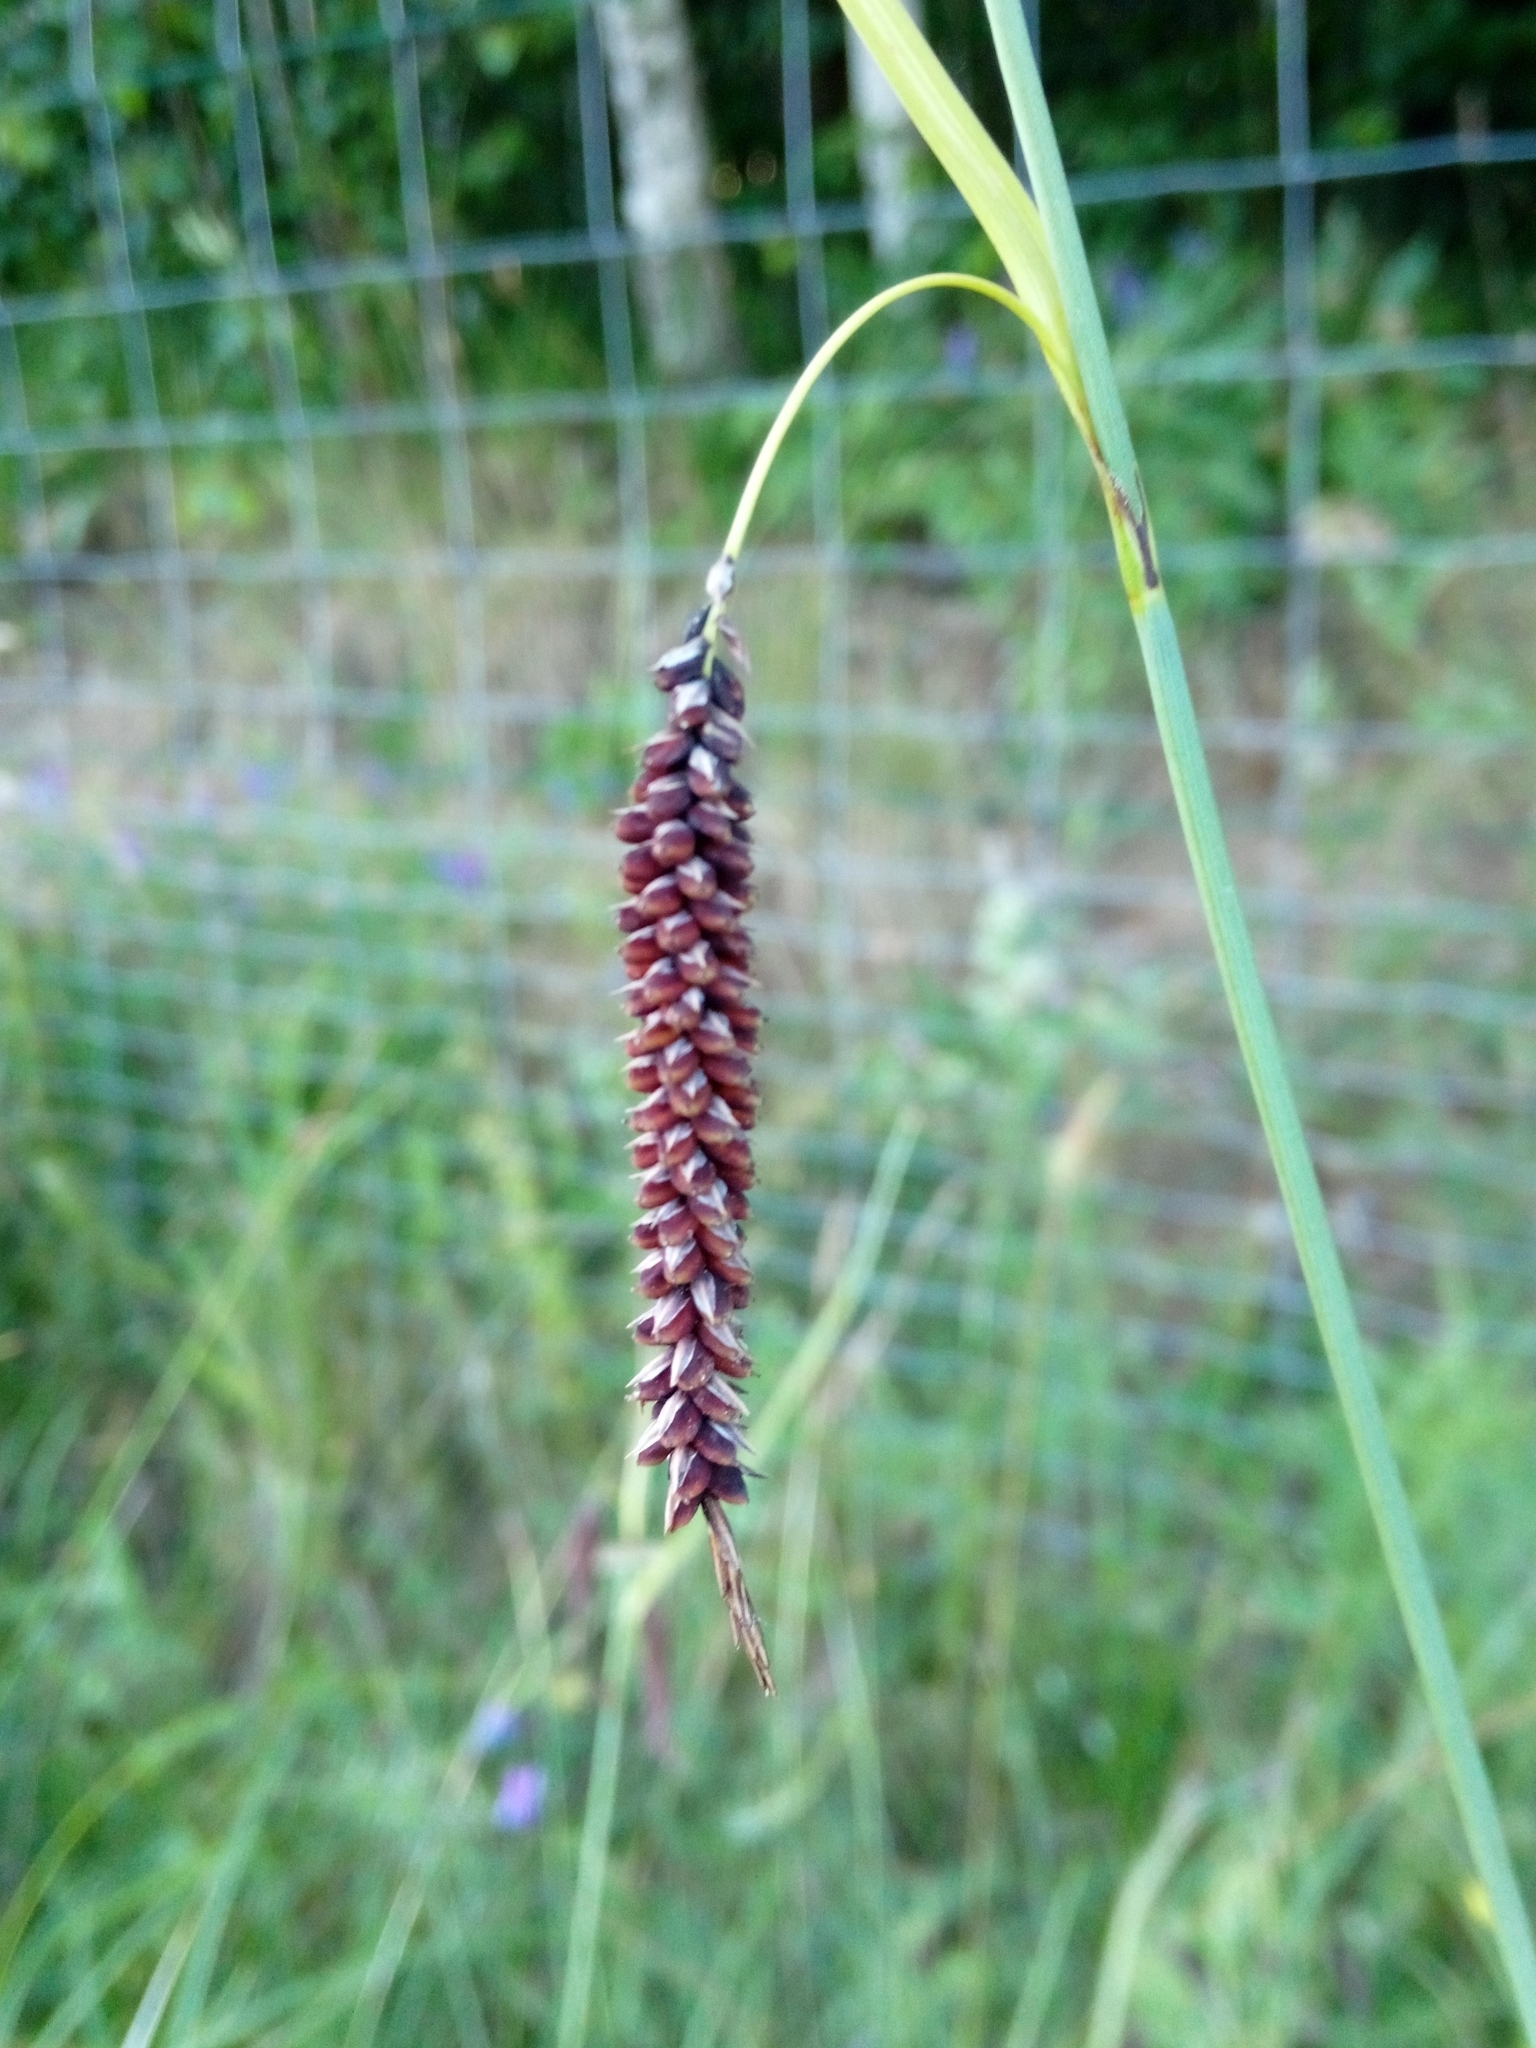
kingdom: Plantae
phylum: Tracheophyta
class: Liliopsida
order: Poales
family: Cyperaceae
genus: Carex
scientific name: Carex flacca
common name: Glaucous sedge
